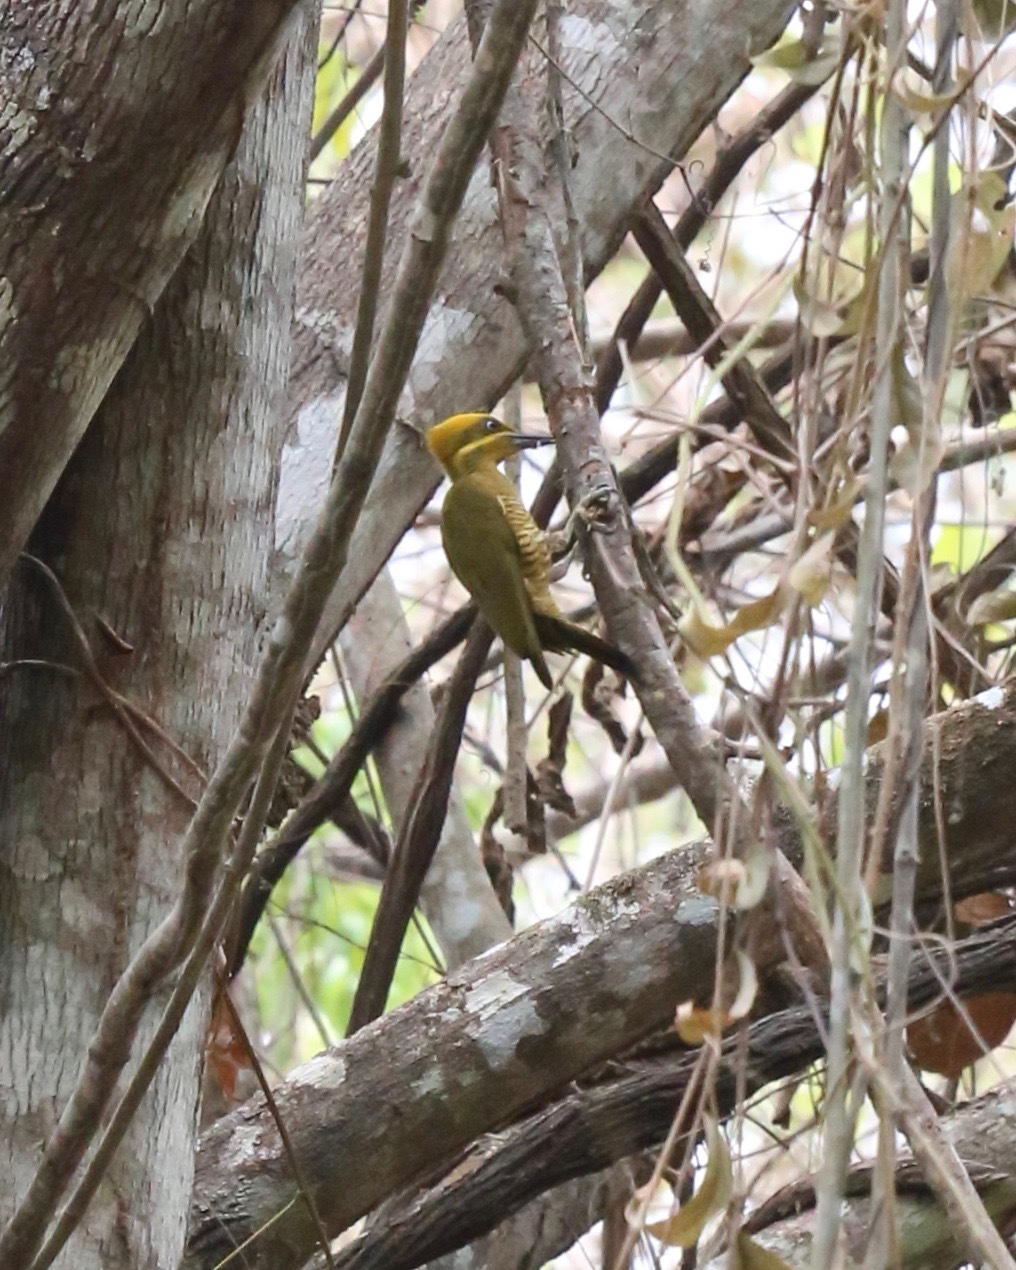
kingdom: Animalia
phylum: Chordata
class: Aves
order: Piciformes
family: Picidae
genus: Piculus
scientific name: Piculus chrysochloros
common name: Golden-green woodpecker
